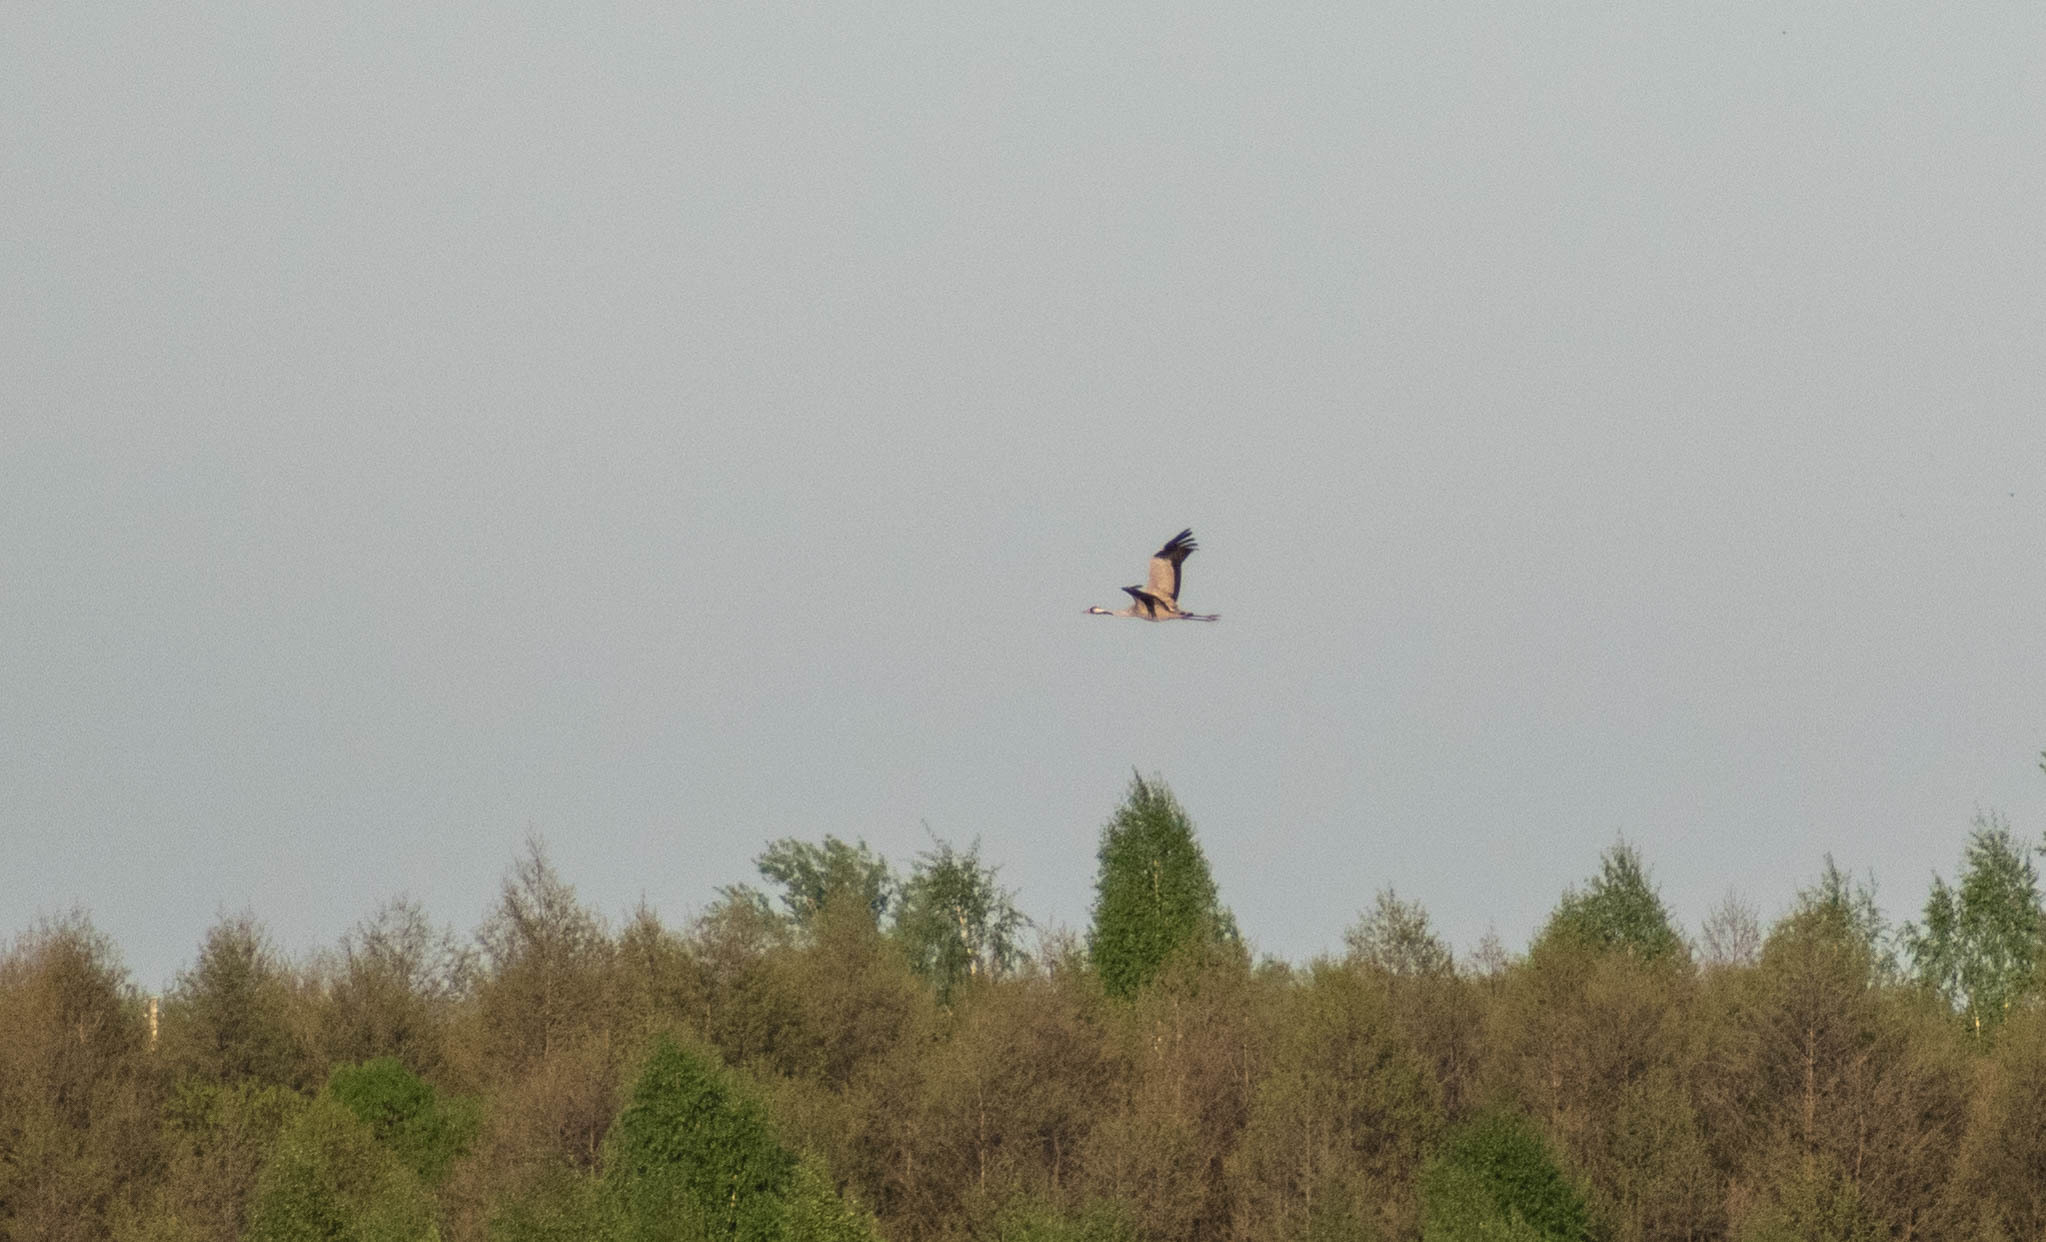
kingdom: Animalia
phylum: Chordata
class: Aves
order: Gruiformes
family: Gruidae
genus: Grus
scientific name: Grus grus
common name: Common crane
